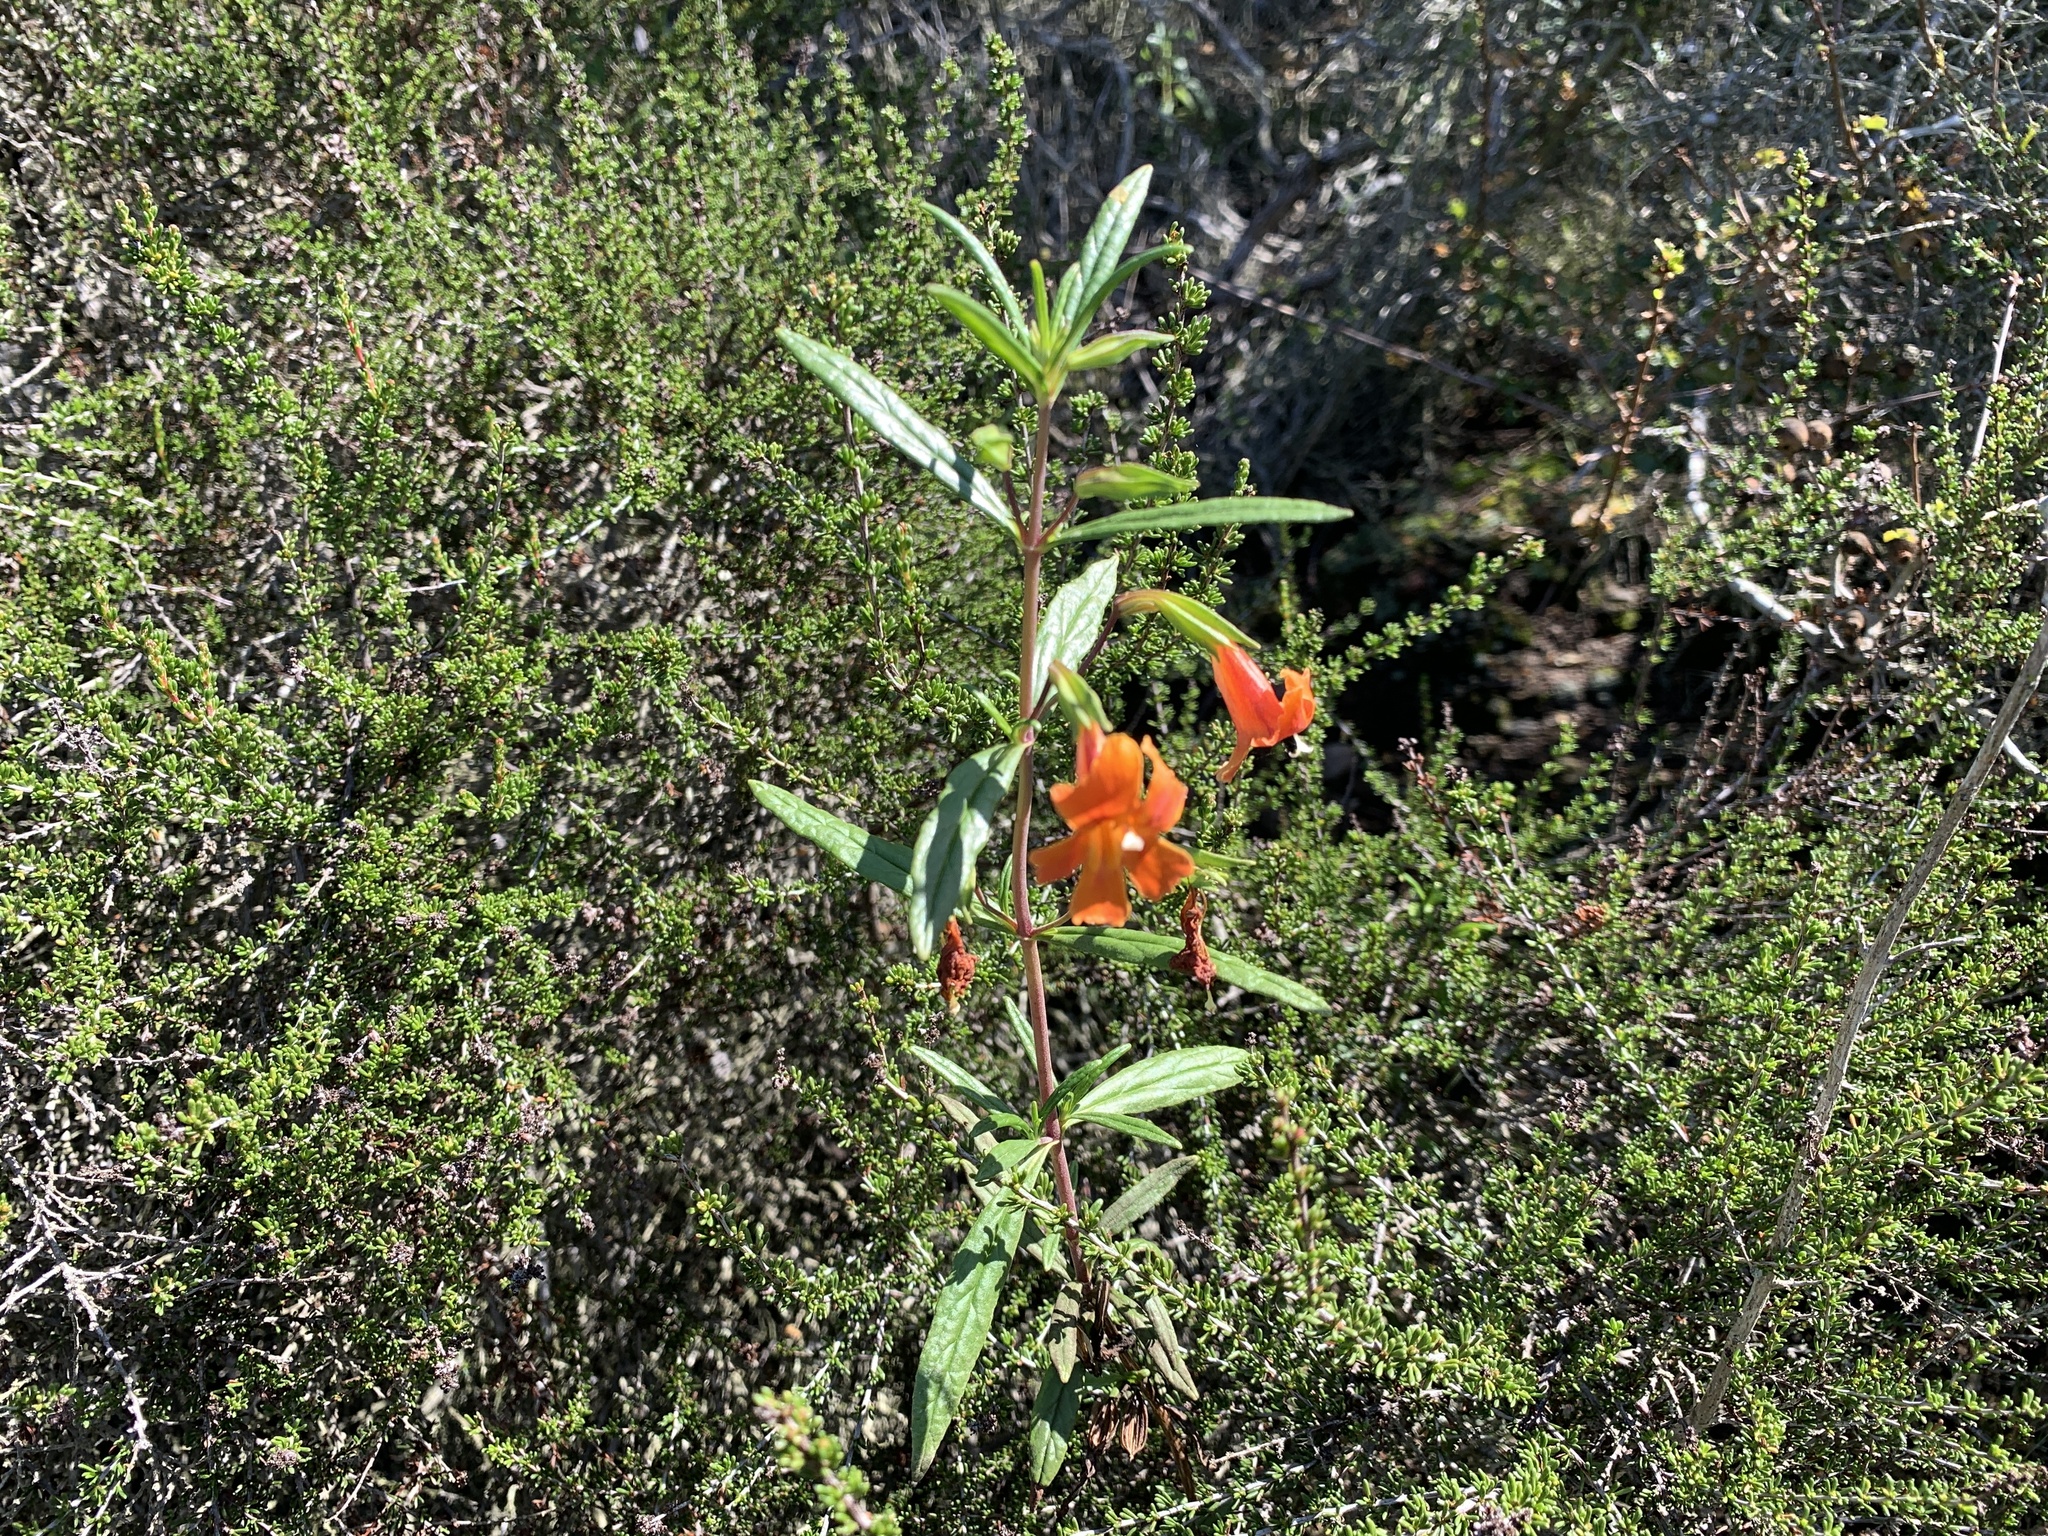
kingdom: Plantae
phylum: Tracheophyta
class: Magnoliopsida
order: Lamiales
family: Phrymaceae
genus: Diplacus
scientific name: Diplacus puniceus
